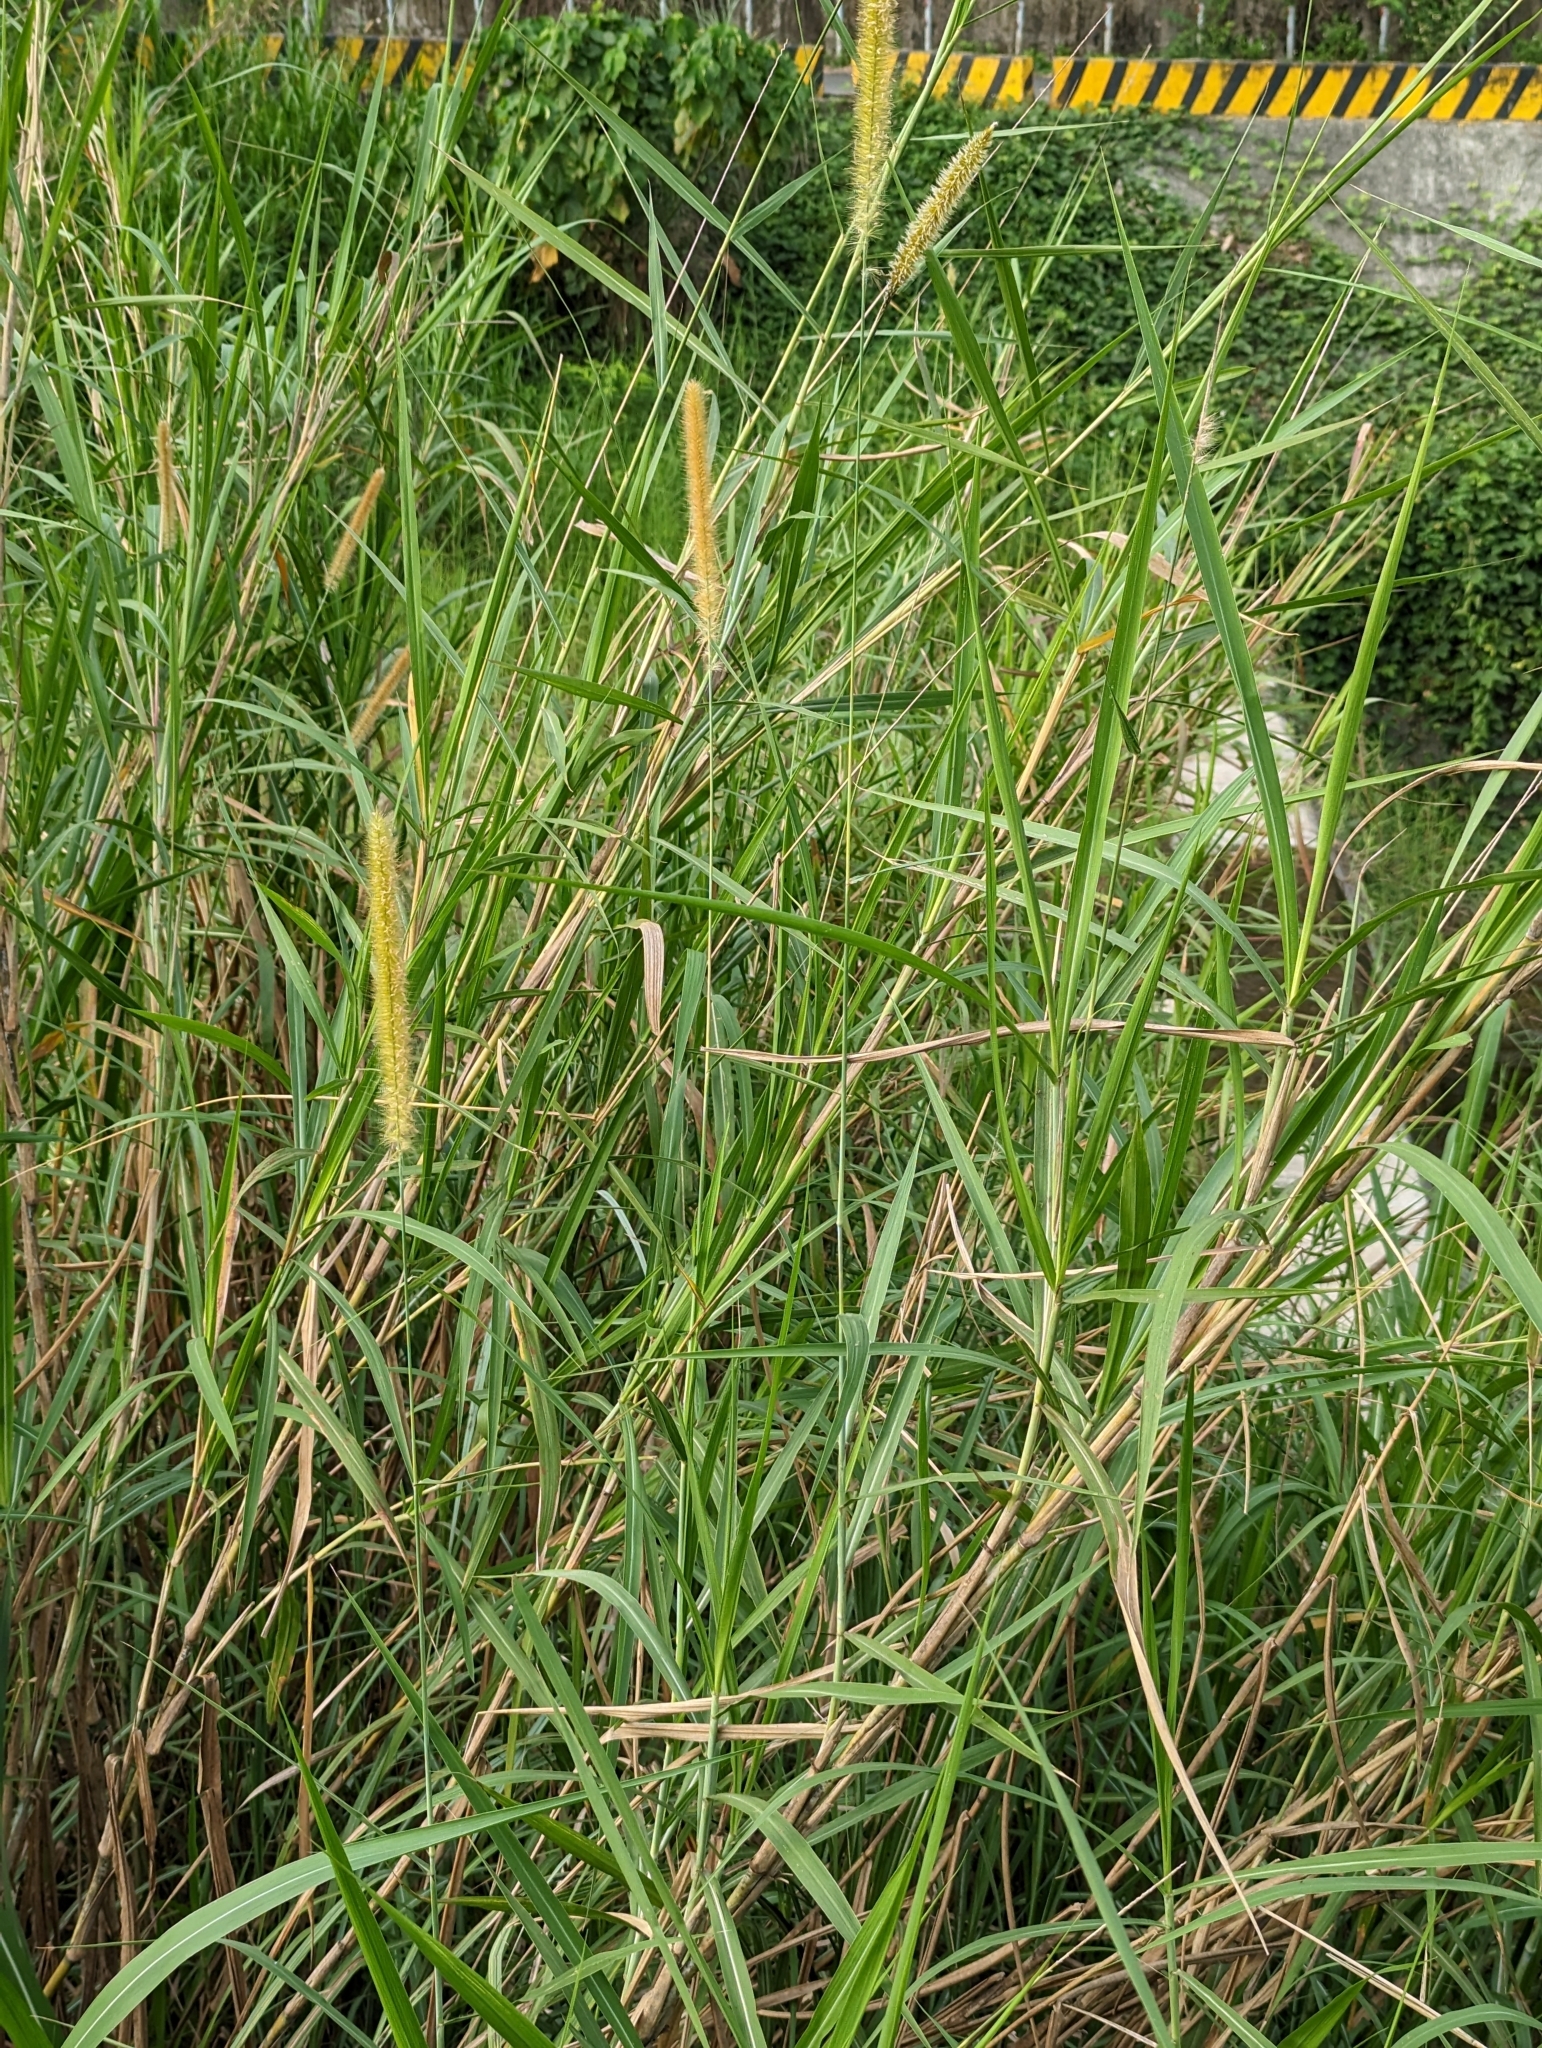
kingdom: Plantae
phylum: Tracheophyta
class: Liliopsida
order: Poales
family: Poaceae
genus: Cenchrus
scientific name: Cenchrus purpureus
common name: Elephant grass
